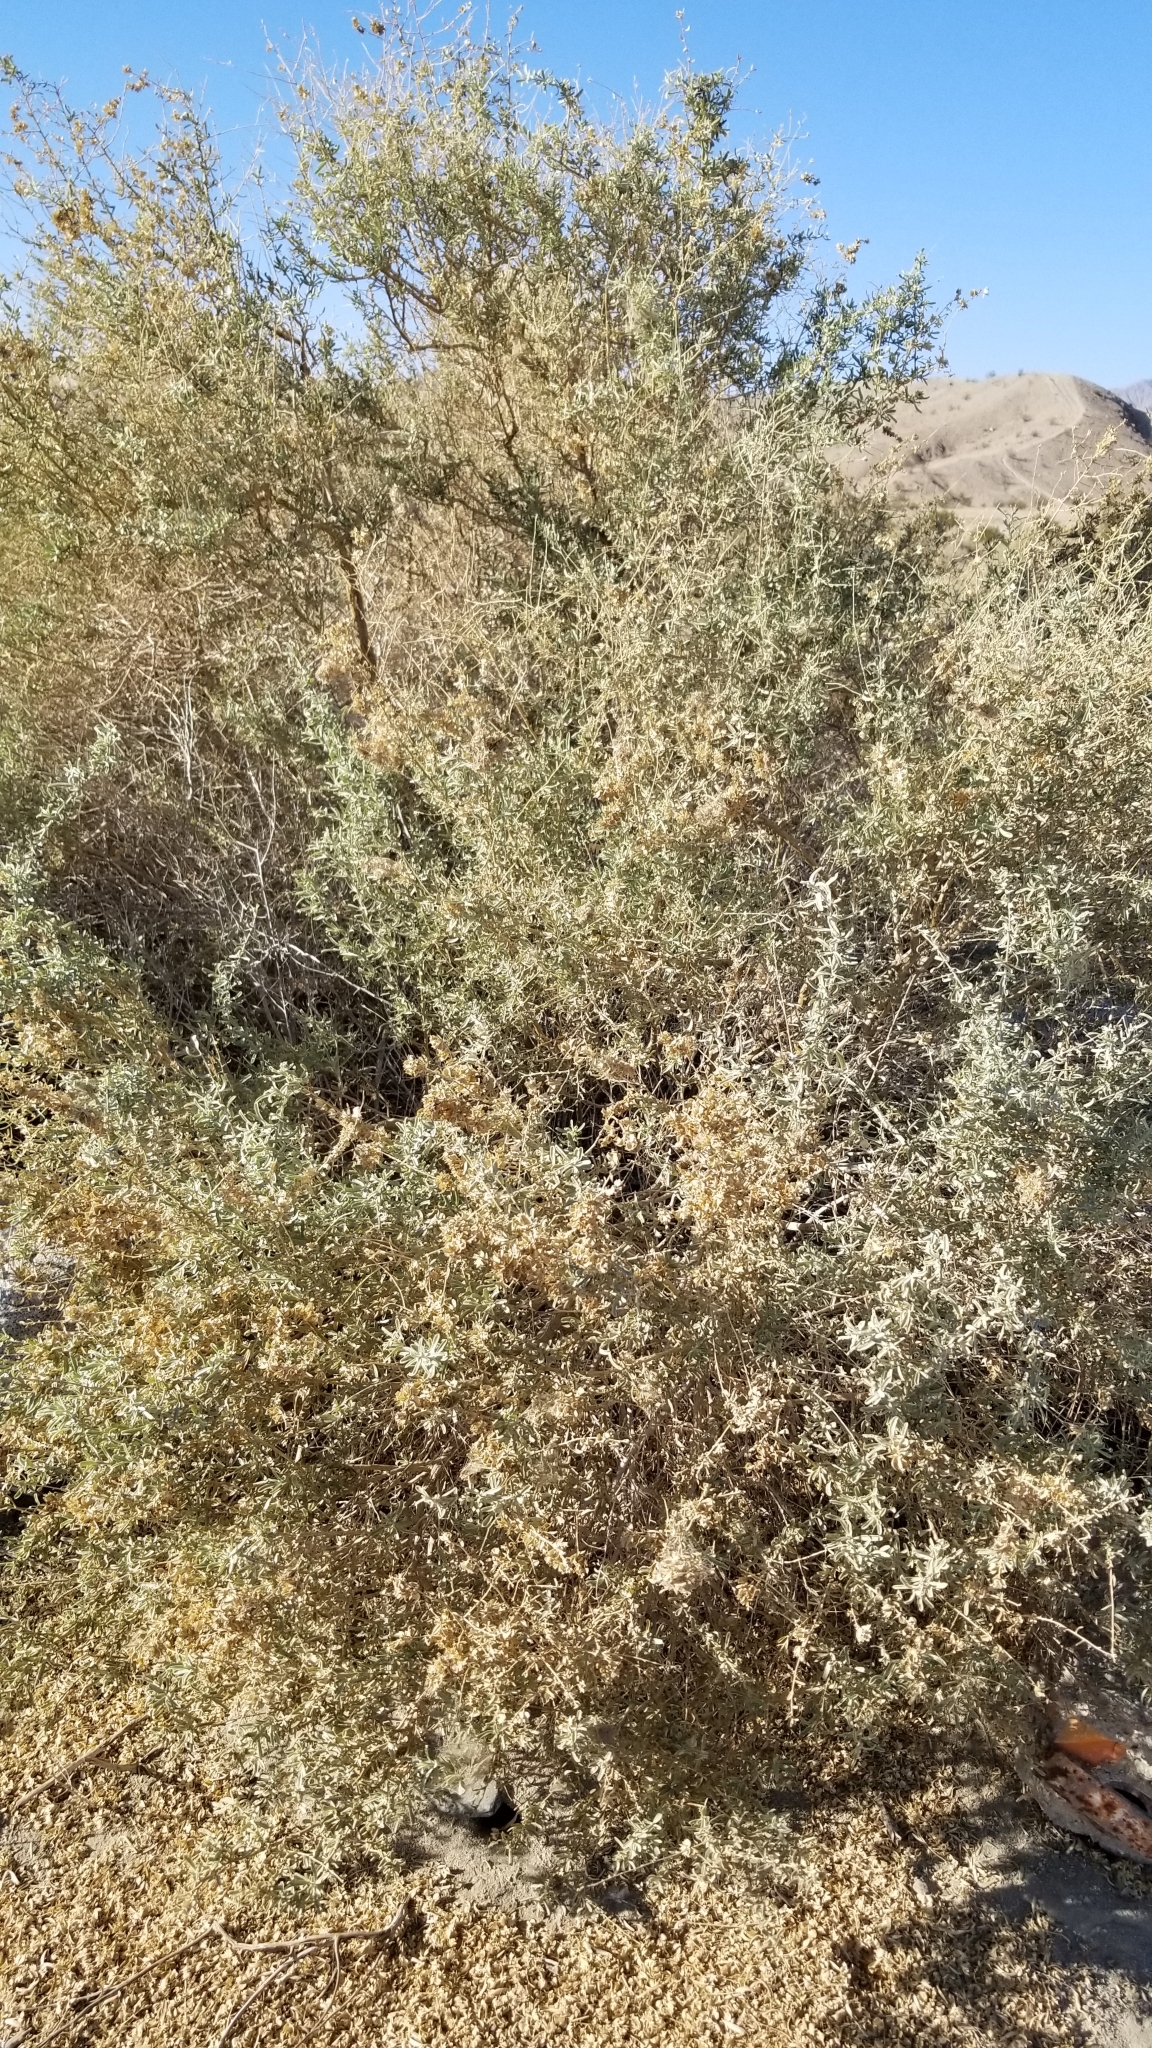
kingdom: Plantae
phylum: Tracheophyta
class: Magnoliopsida
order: Caryophyllales
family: Amaranthaceae
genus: Atriplex
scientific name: Atriplex canescens
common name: Four-wing saltbush
